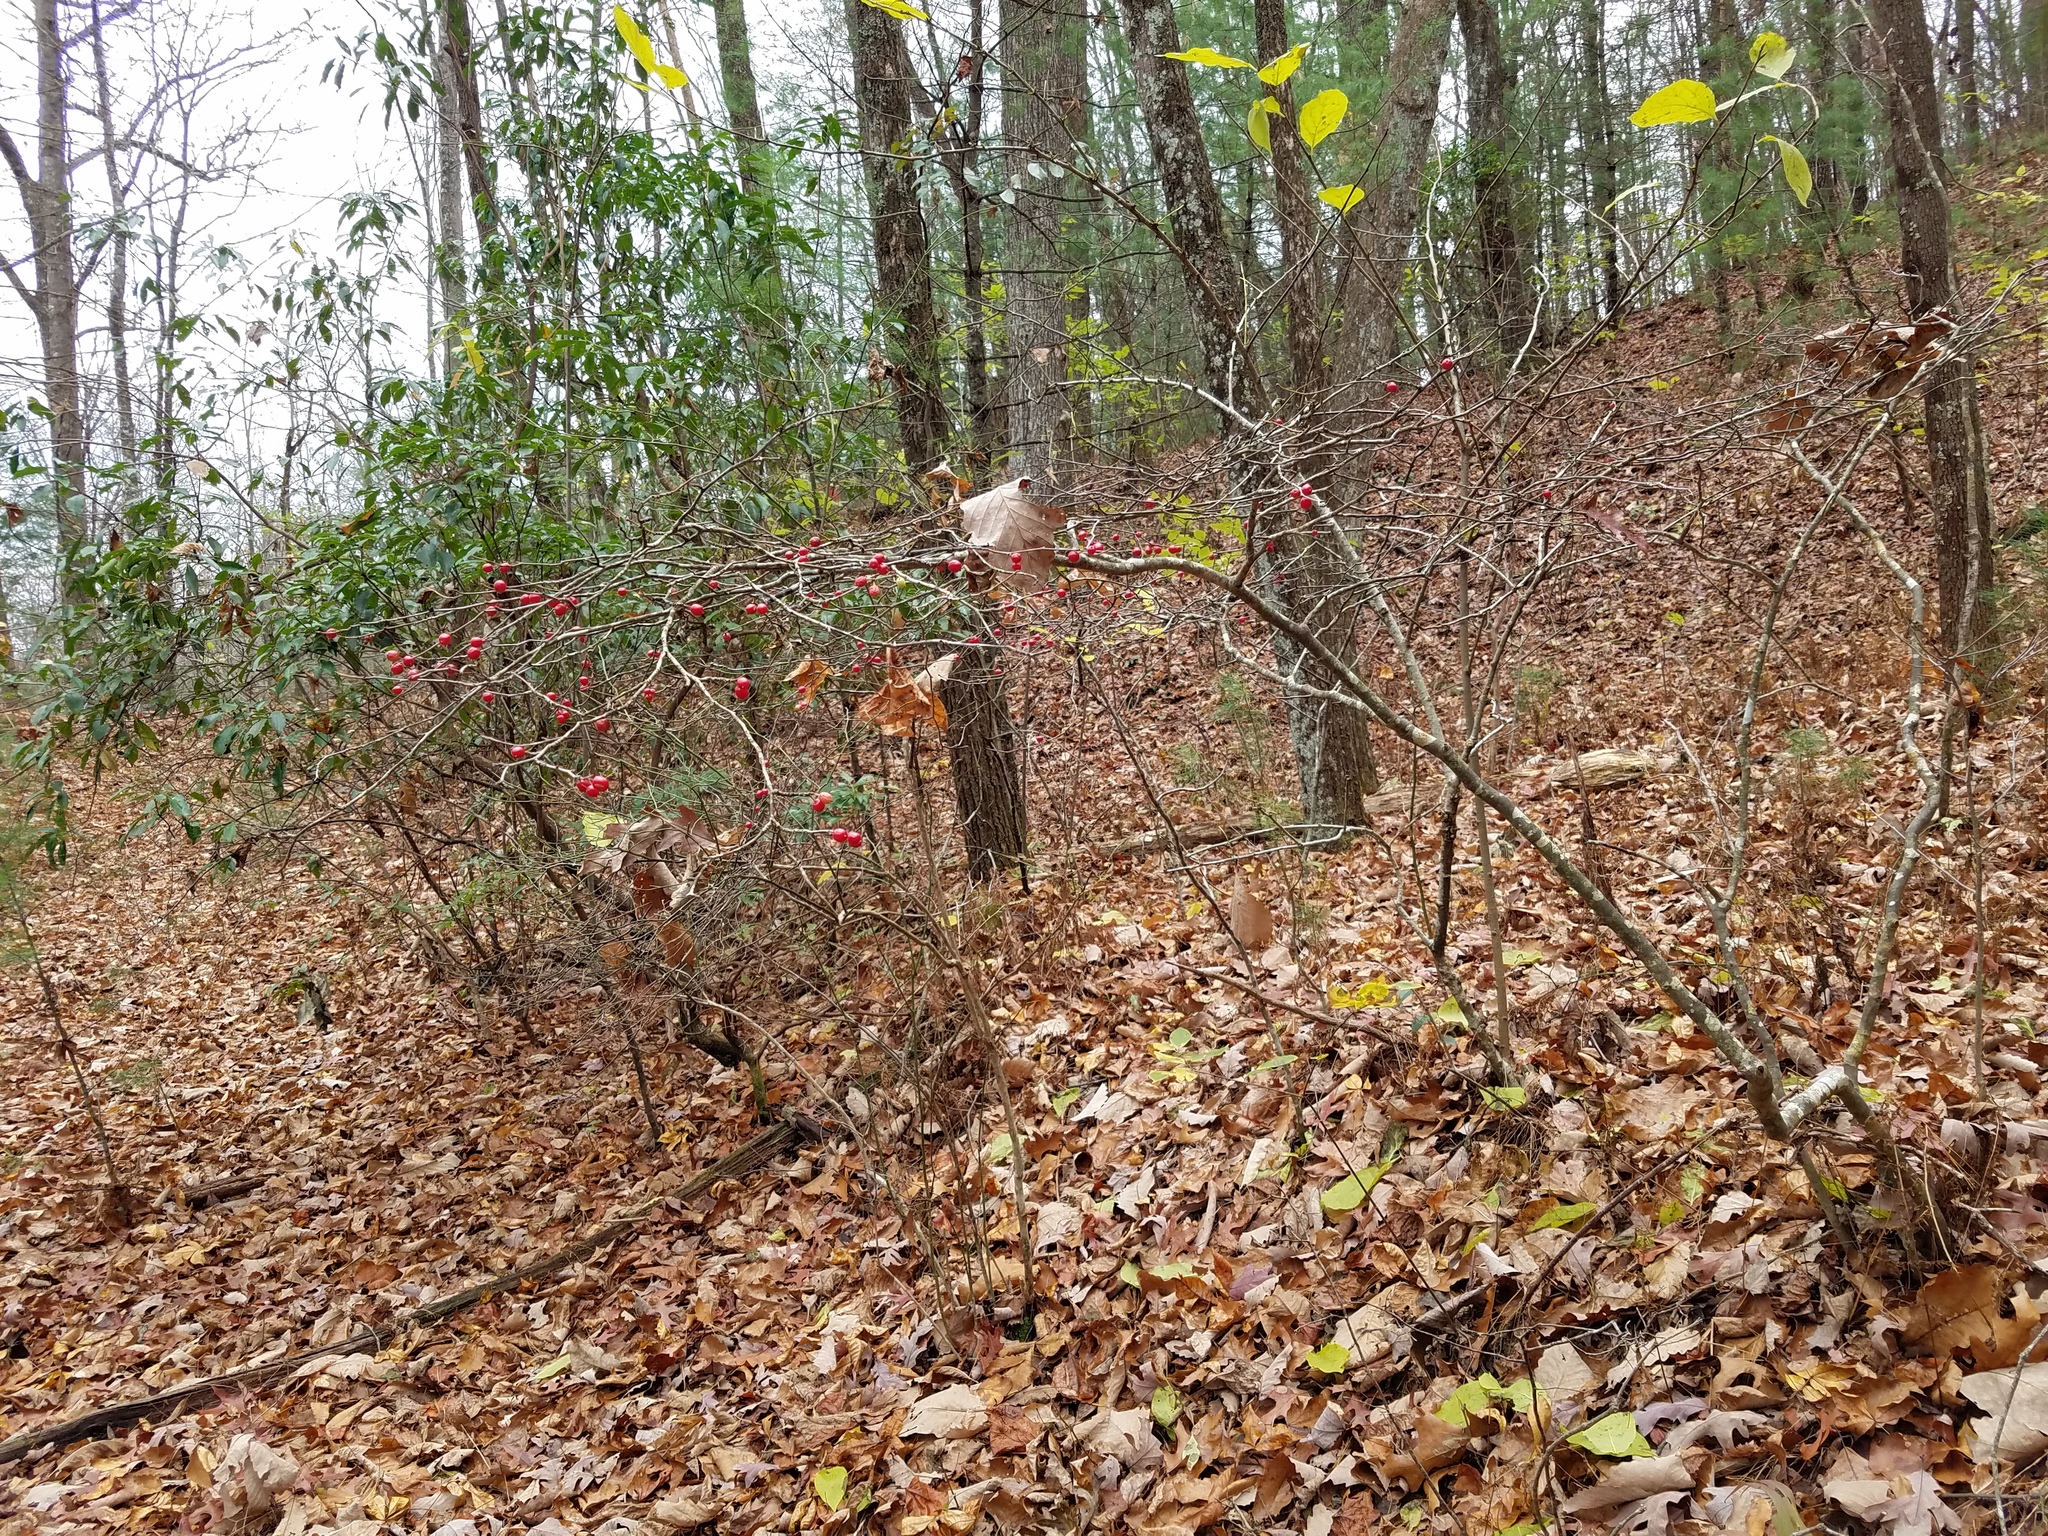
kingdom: Plantae
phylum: Tracheophyta
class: Magnoliopsida
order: Aquifoliales
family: Aquifoliaceae
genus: Ilex
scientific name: Ilex ambigua
